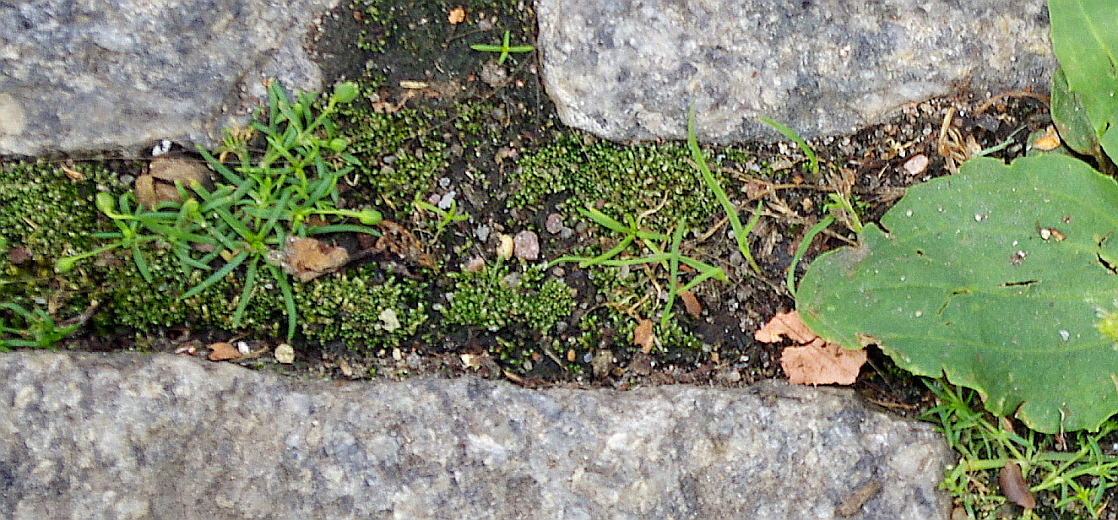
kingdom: Plantae
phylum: Tracheophyta
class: Magnoliopsida
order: Caryophyllales
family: Caryophyllaceae
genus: Sagina
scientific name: Sagina procumbens
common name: Procumbent pearlwort
